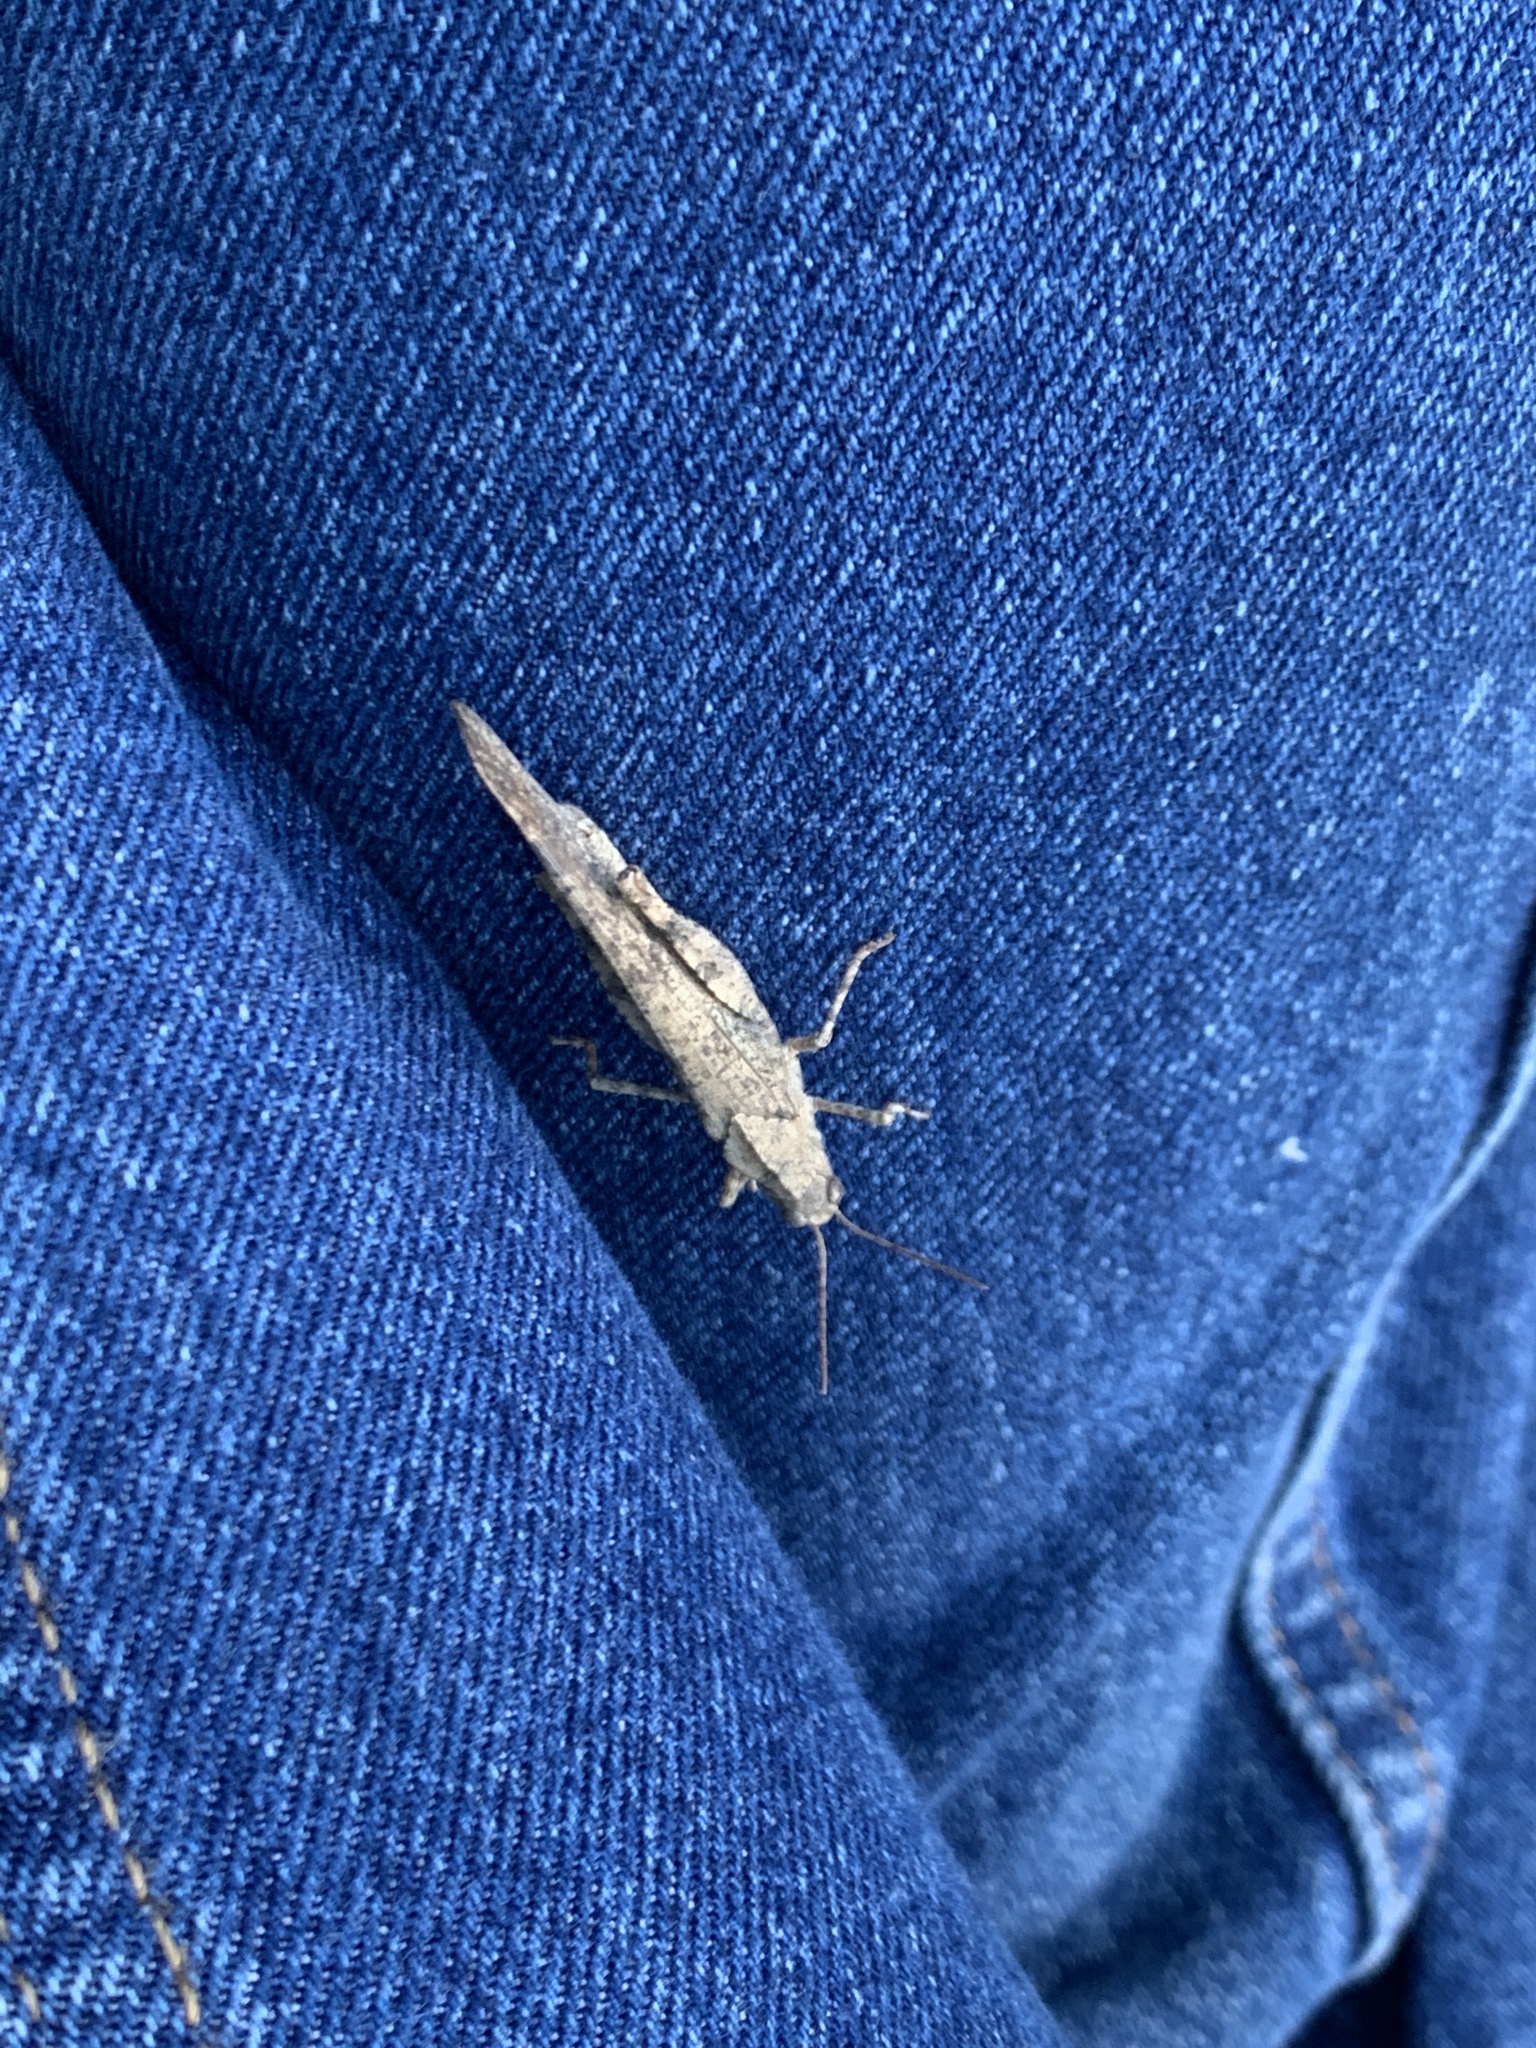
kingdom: Animalia
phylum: Arthropoda
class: Insecta
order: Orthoptera
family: Acrididae
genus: Dissosteira
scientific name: Dissosteira carolina
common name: Carolina grasshopper
